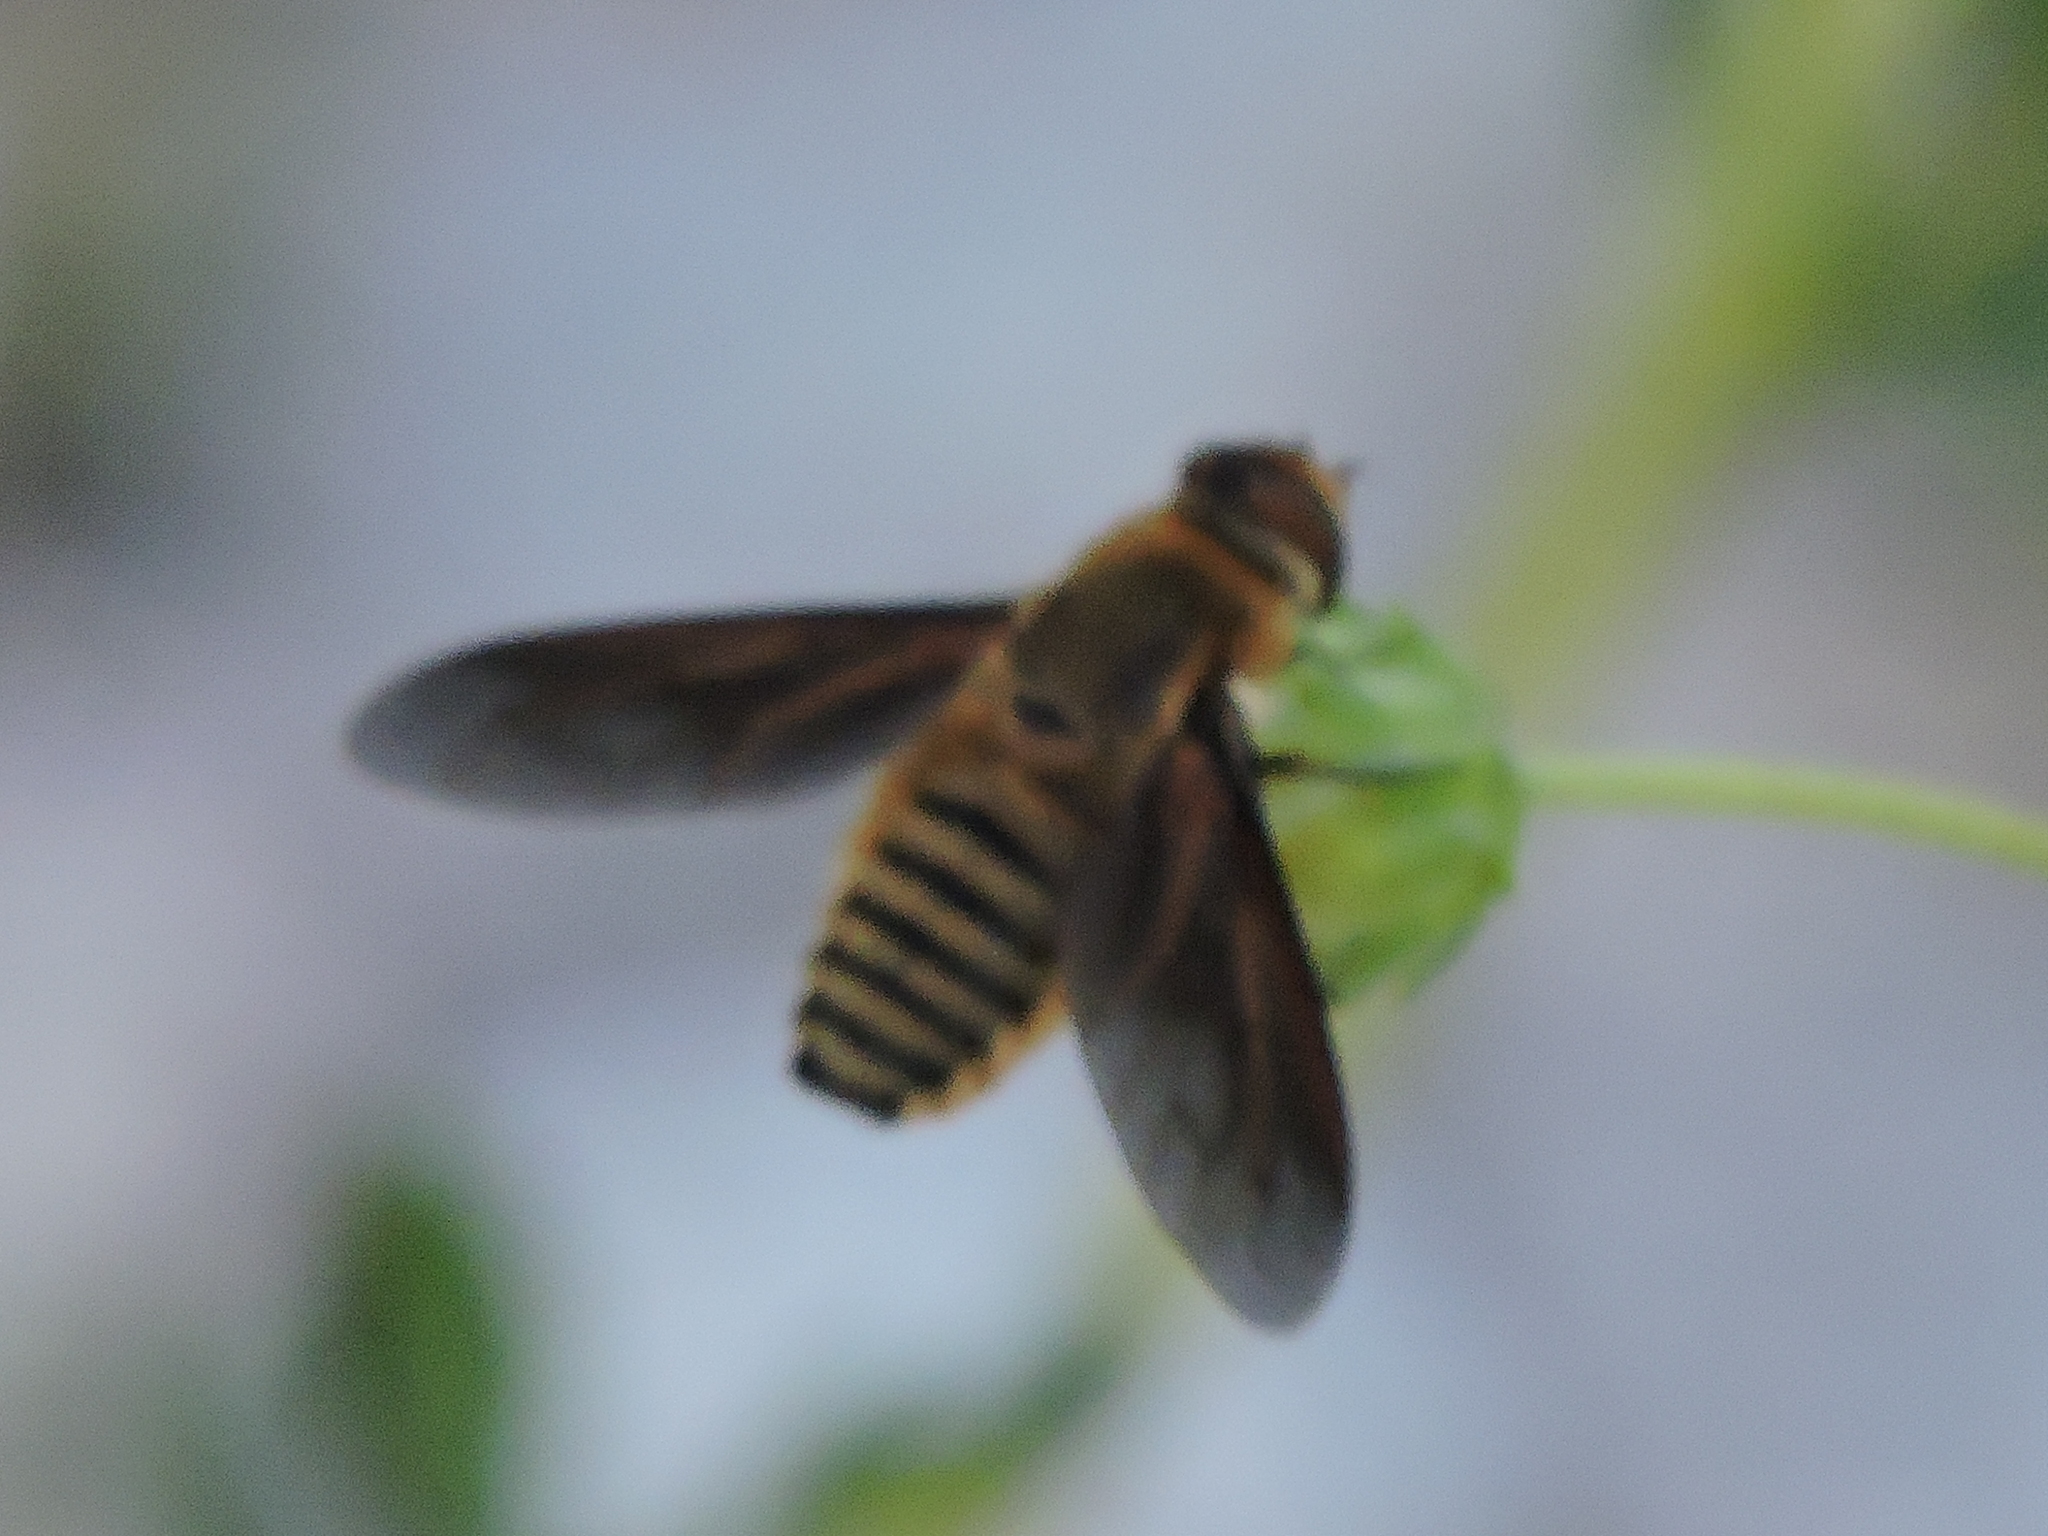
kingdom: Animalia
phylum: Arthropoda
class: Insecta
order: Diptera
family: Bombyliidae
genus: Poecilanthrax
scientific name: Poecilanthrax lucifer
